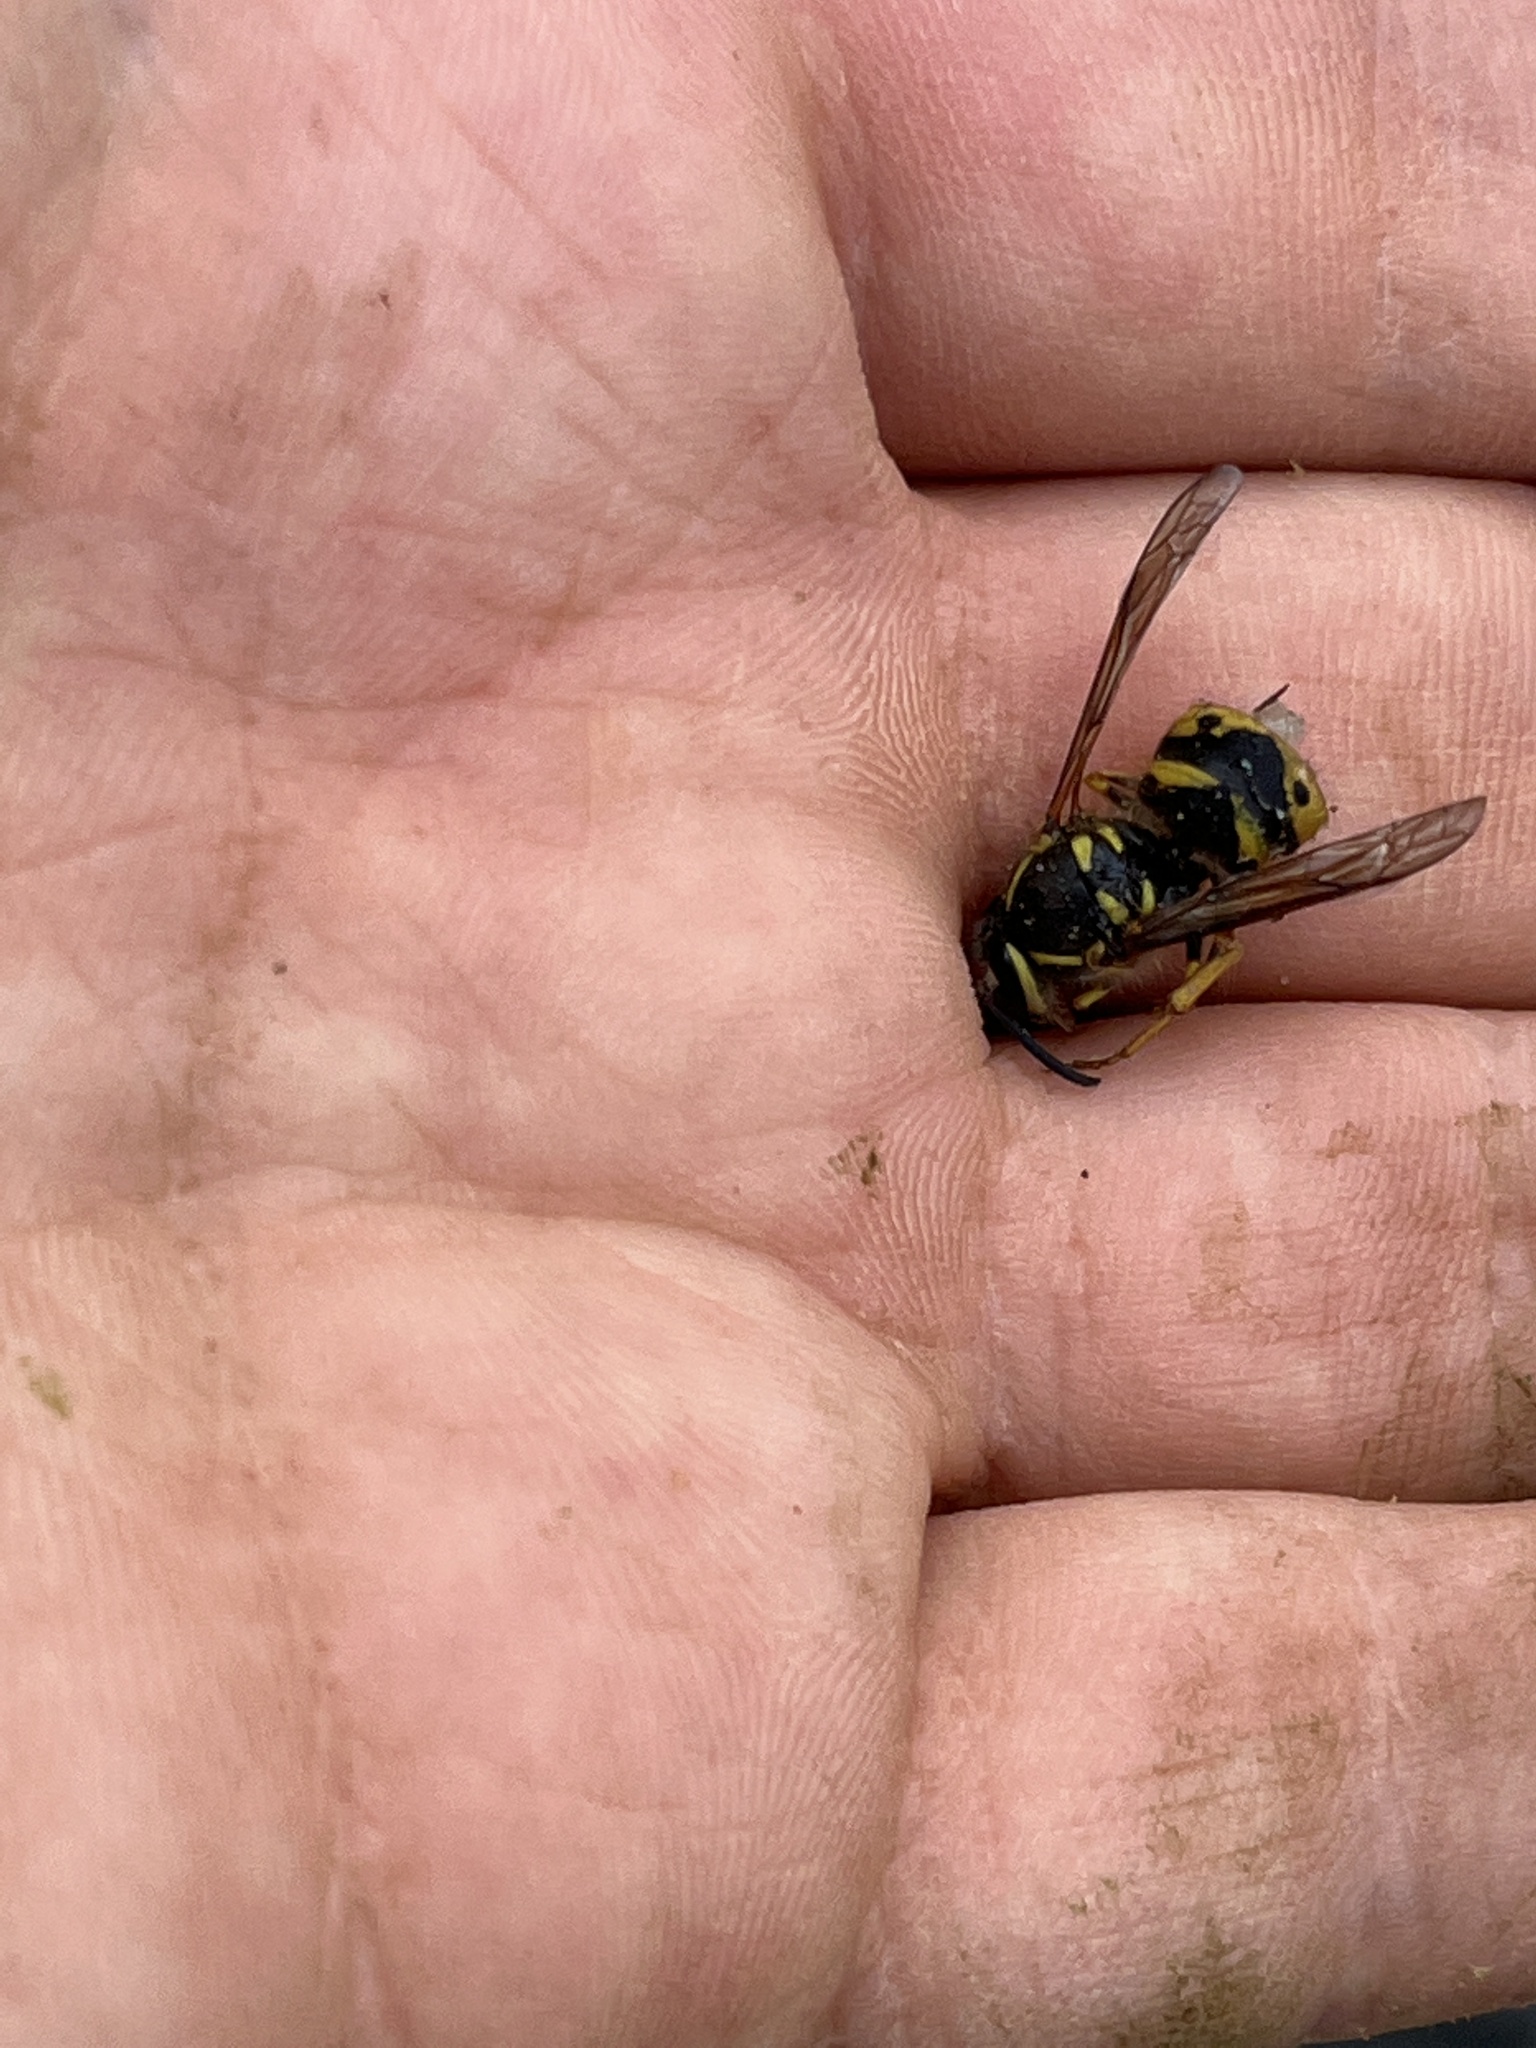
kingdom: Animalia
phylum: Arthropoda
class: Insecta
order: Hymenoptera
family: Vespidae
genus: Dolichovespula
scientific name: Dolichovespula arenaria
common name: Aerial yellowjacket
